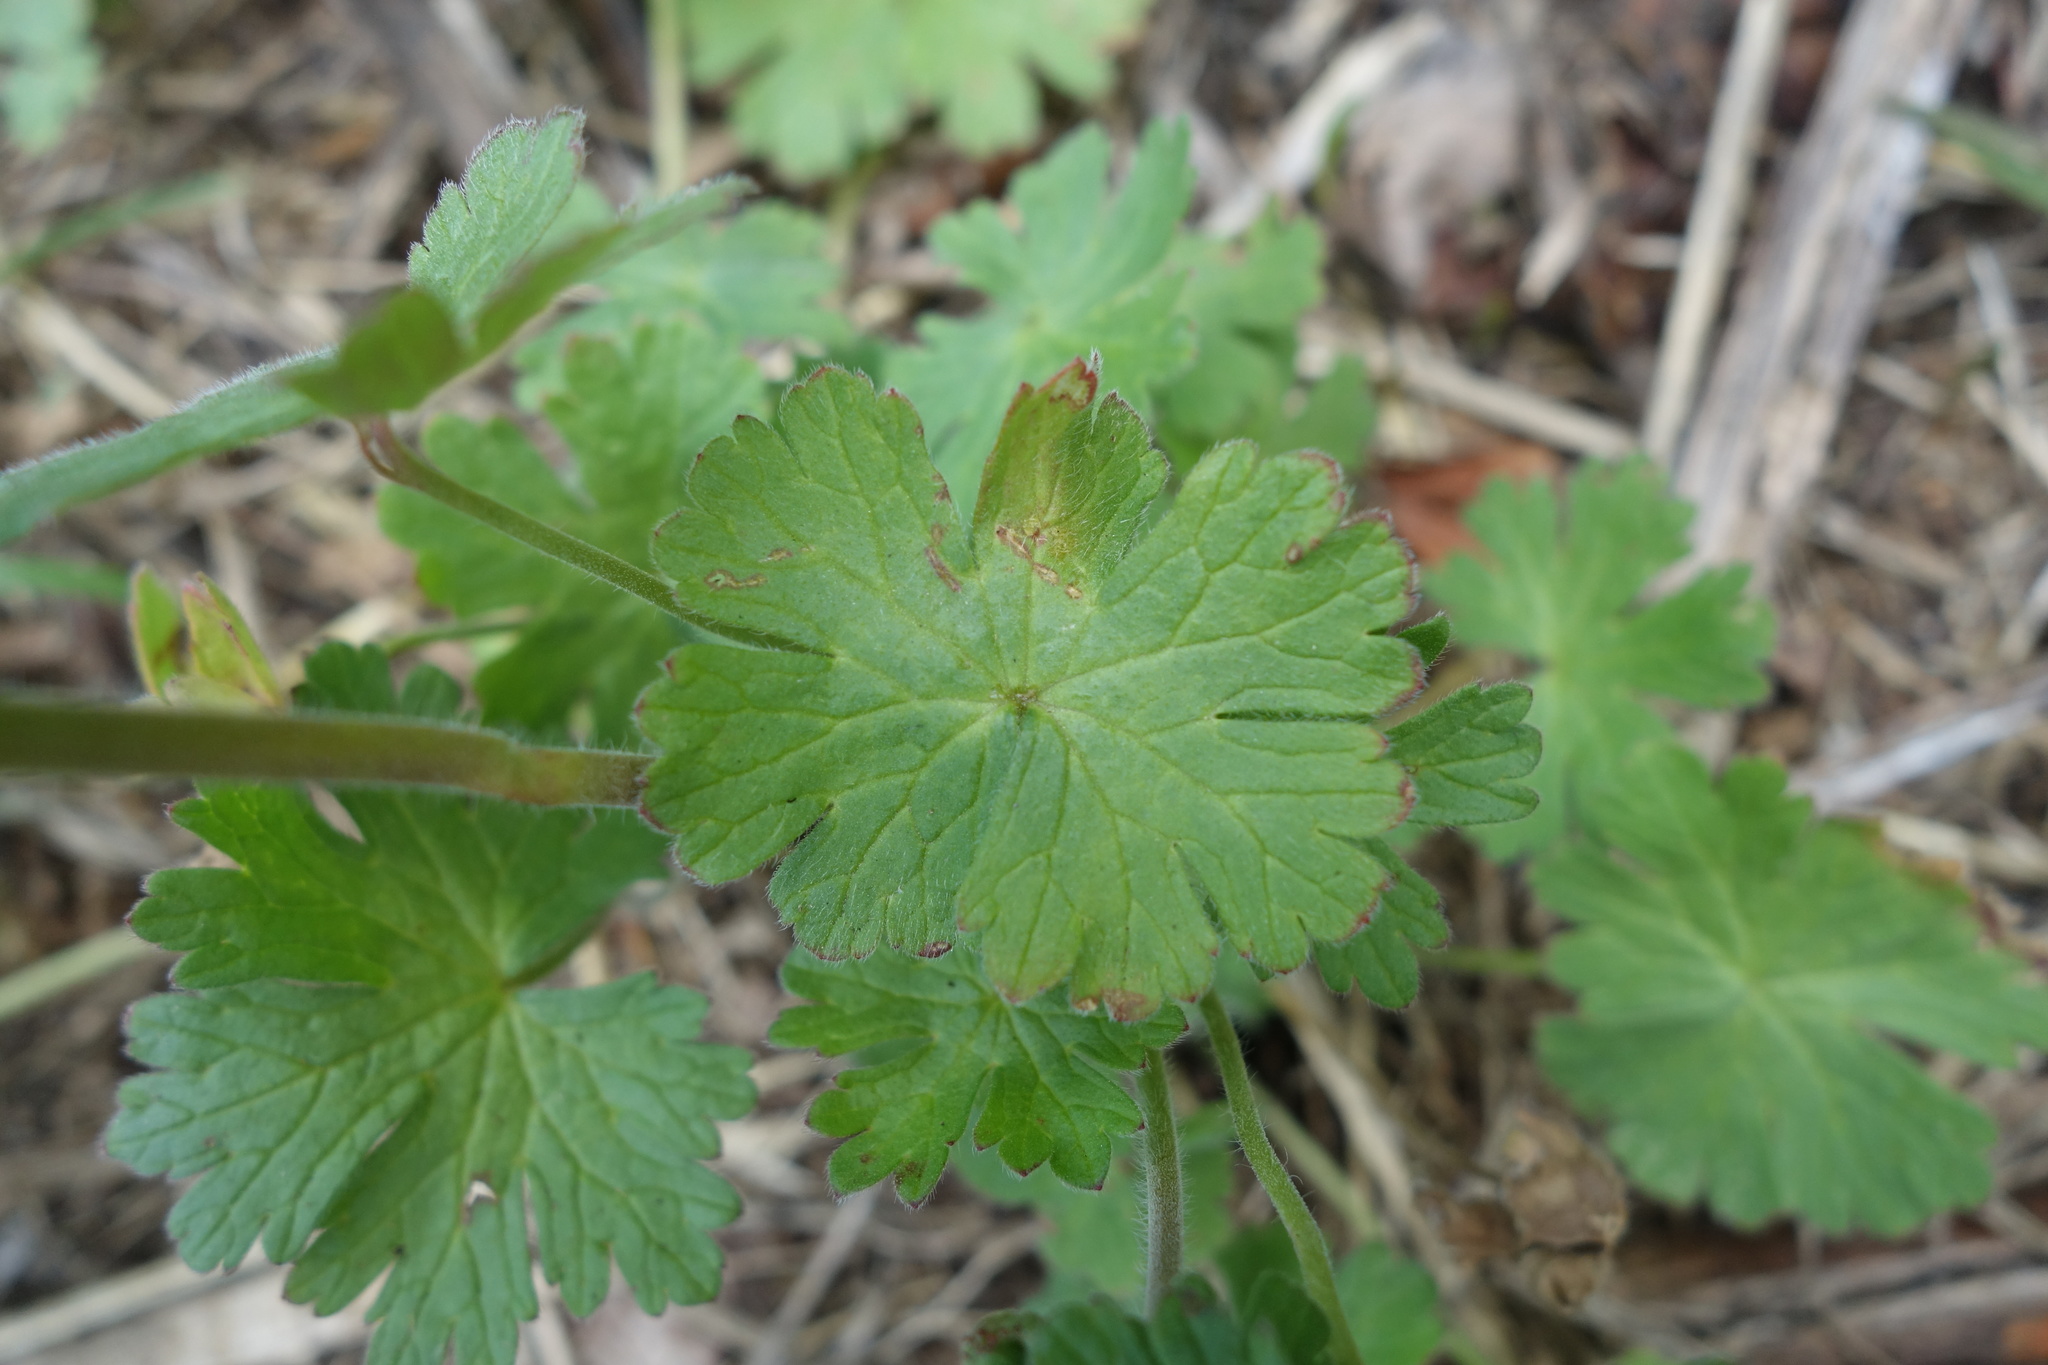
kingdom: Plantae
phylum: Tracheophyta
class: Magnoliopsida
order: Geraniales
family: Geraniaceae
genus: Geranium
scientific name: Geranium pyrenaicum
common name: Hedgerow crane's-bill
